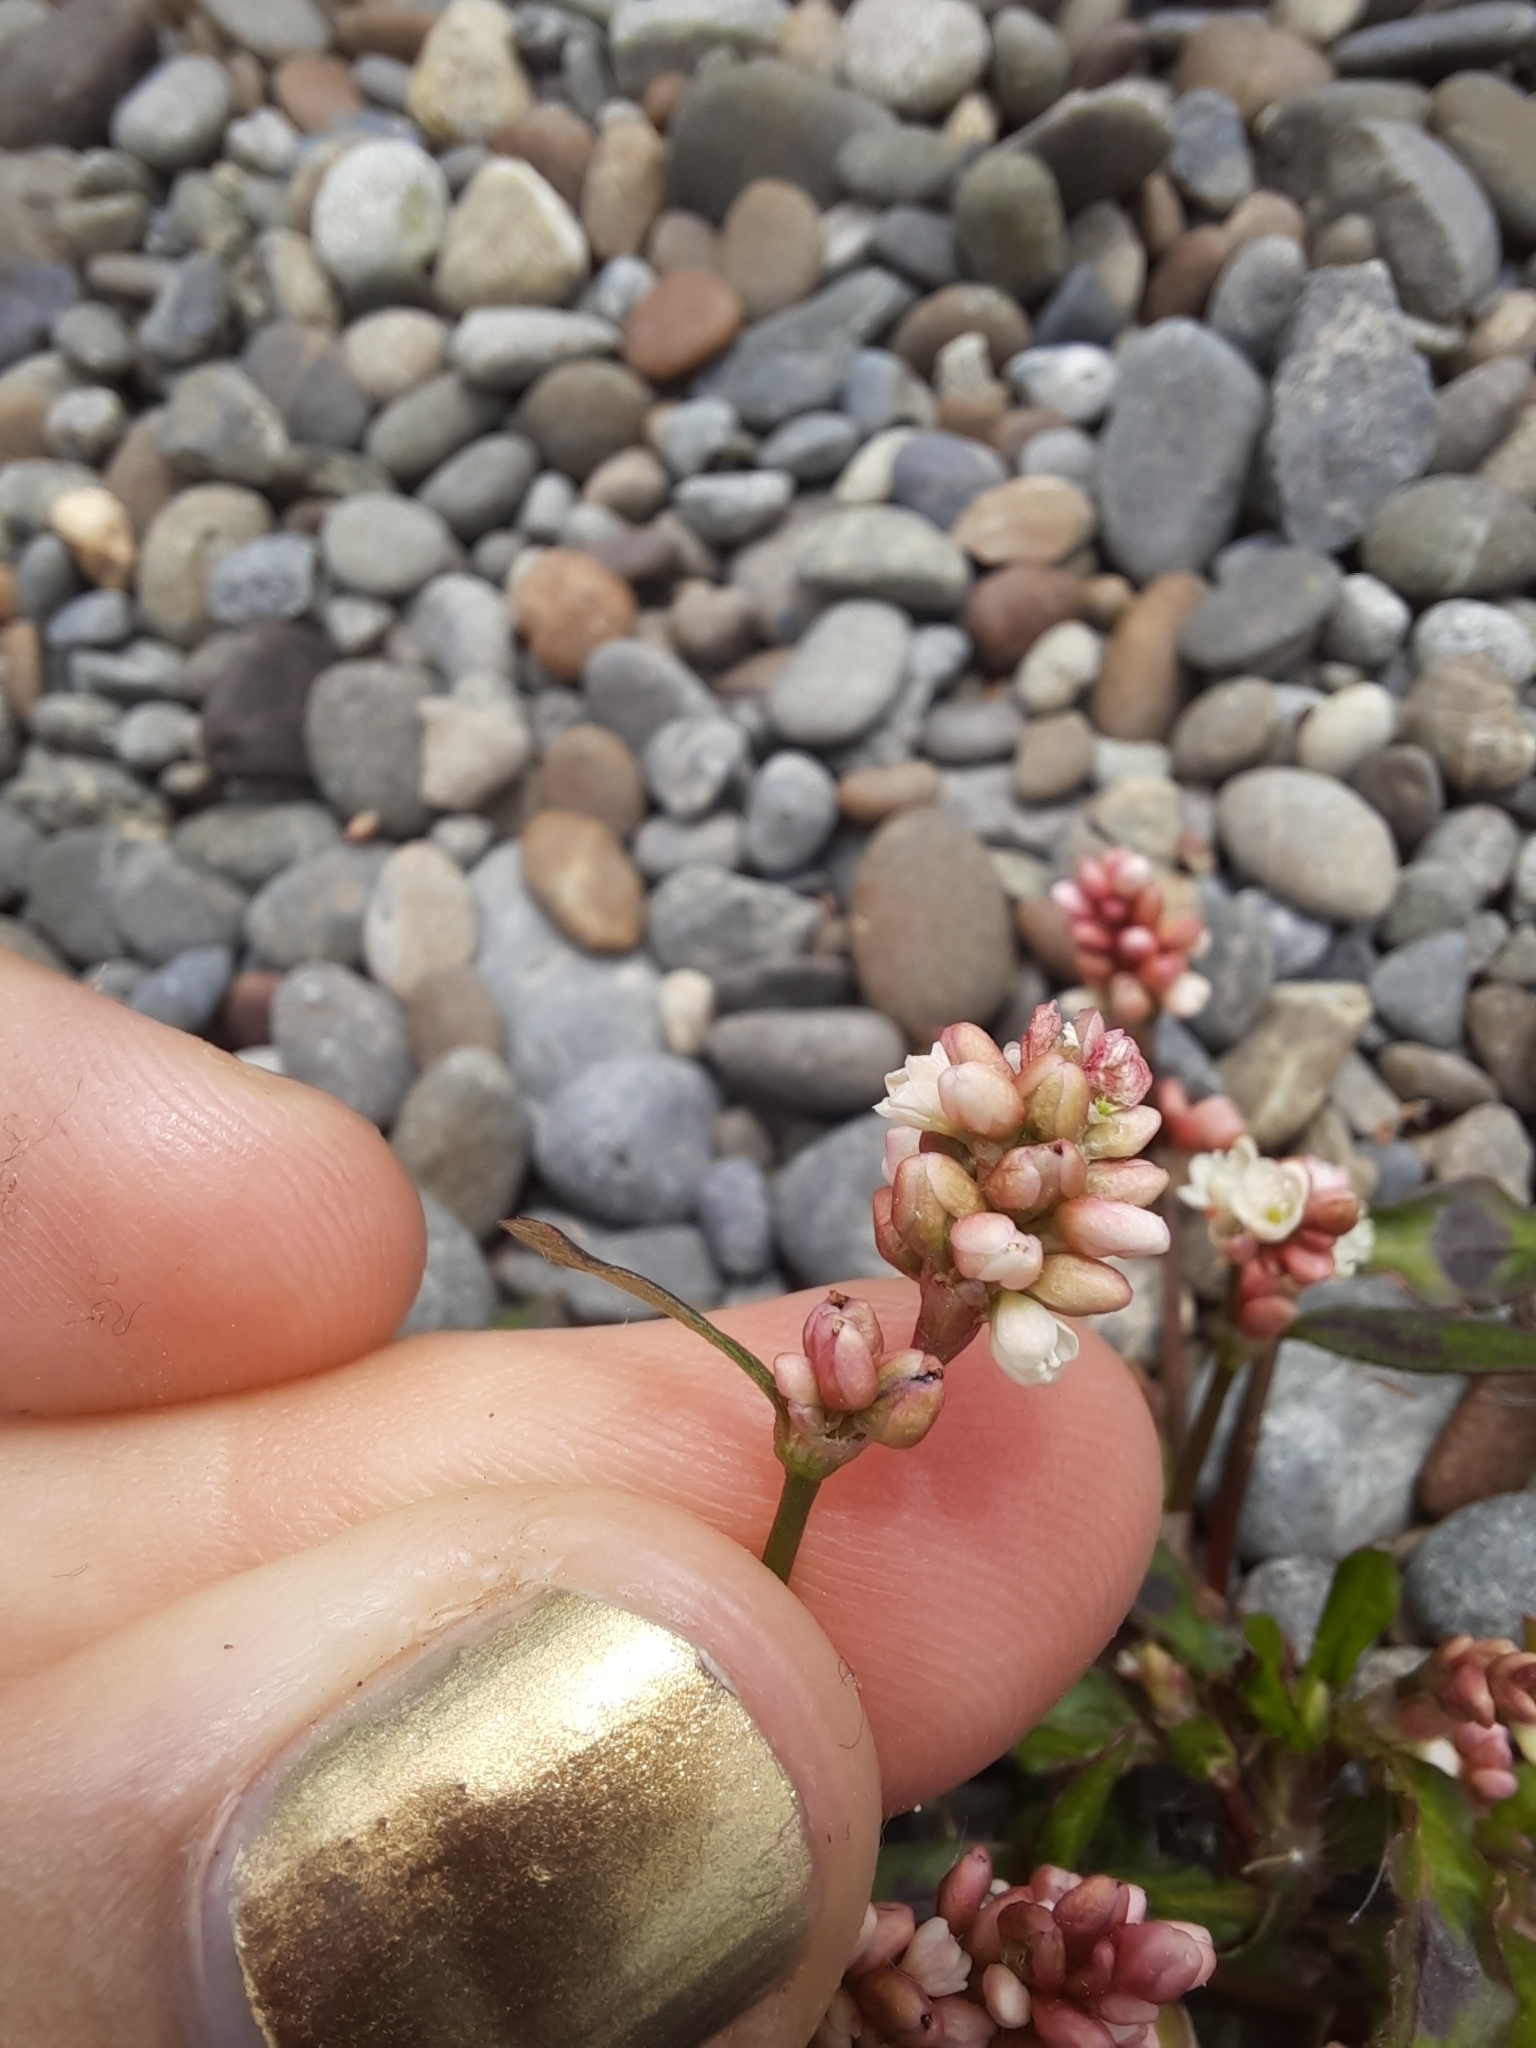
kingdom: Plantae
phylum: Tracheophyta
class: Magnoliopsida
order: Caryophyllales
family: Polygonaceae
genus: Persicaria
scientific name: Persicaria maculosa
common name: Redshank
